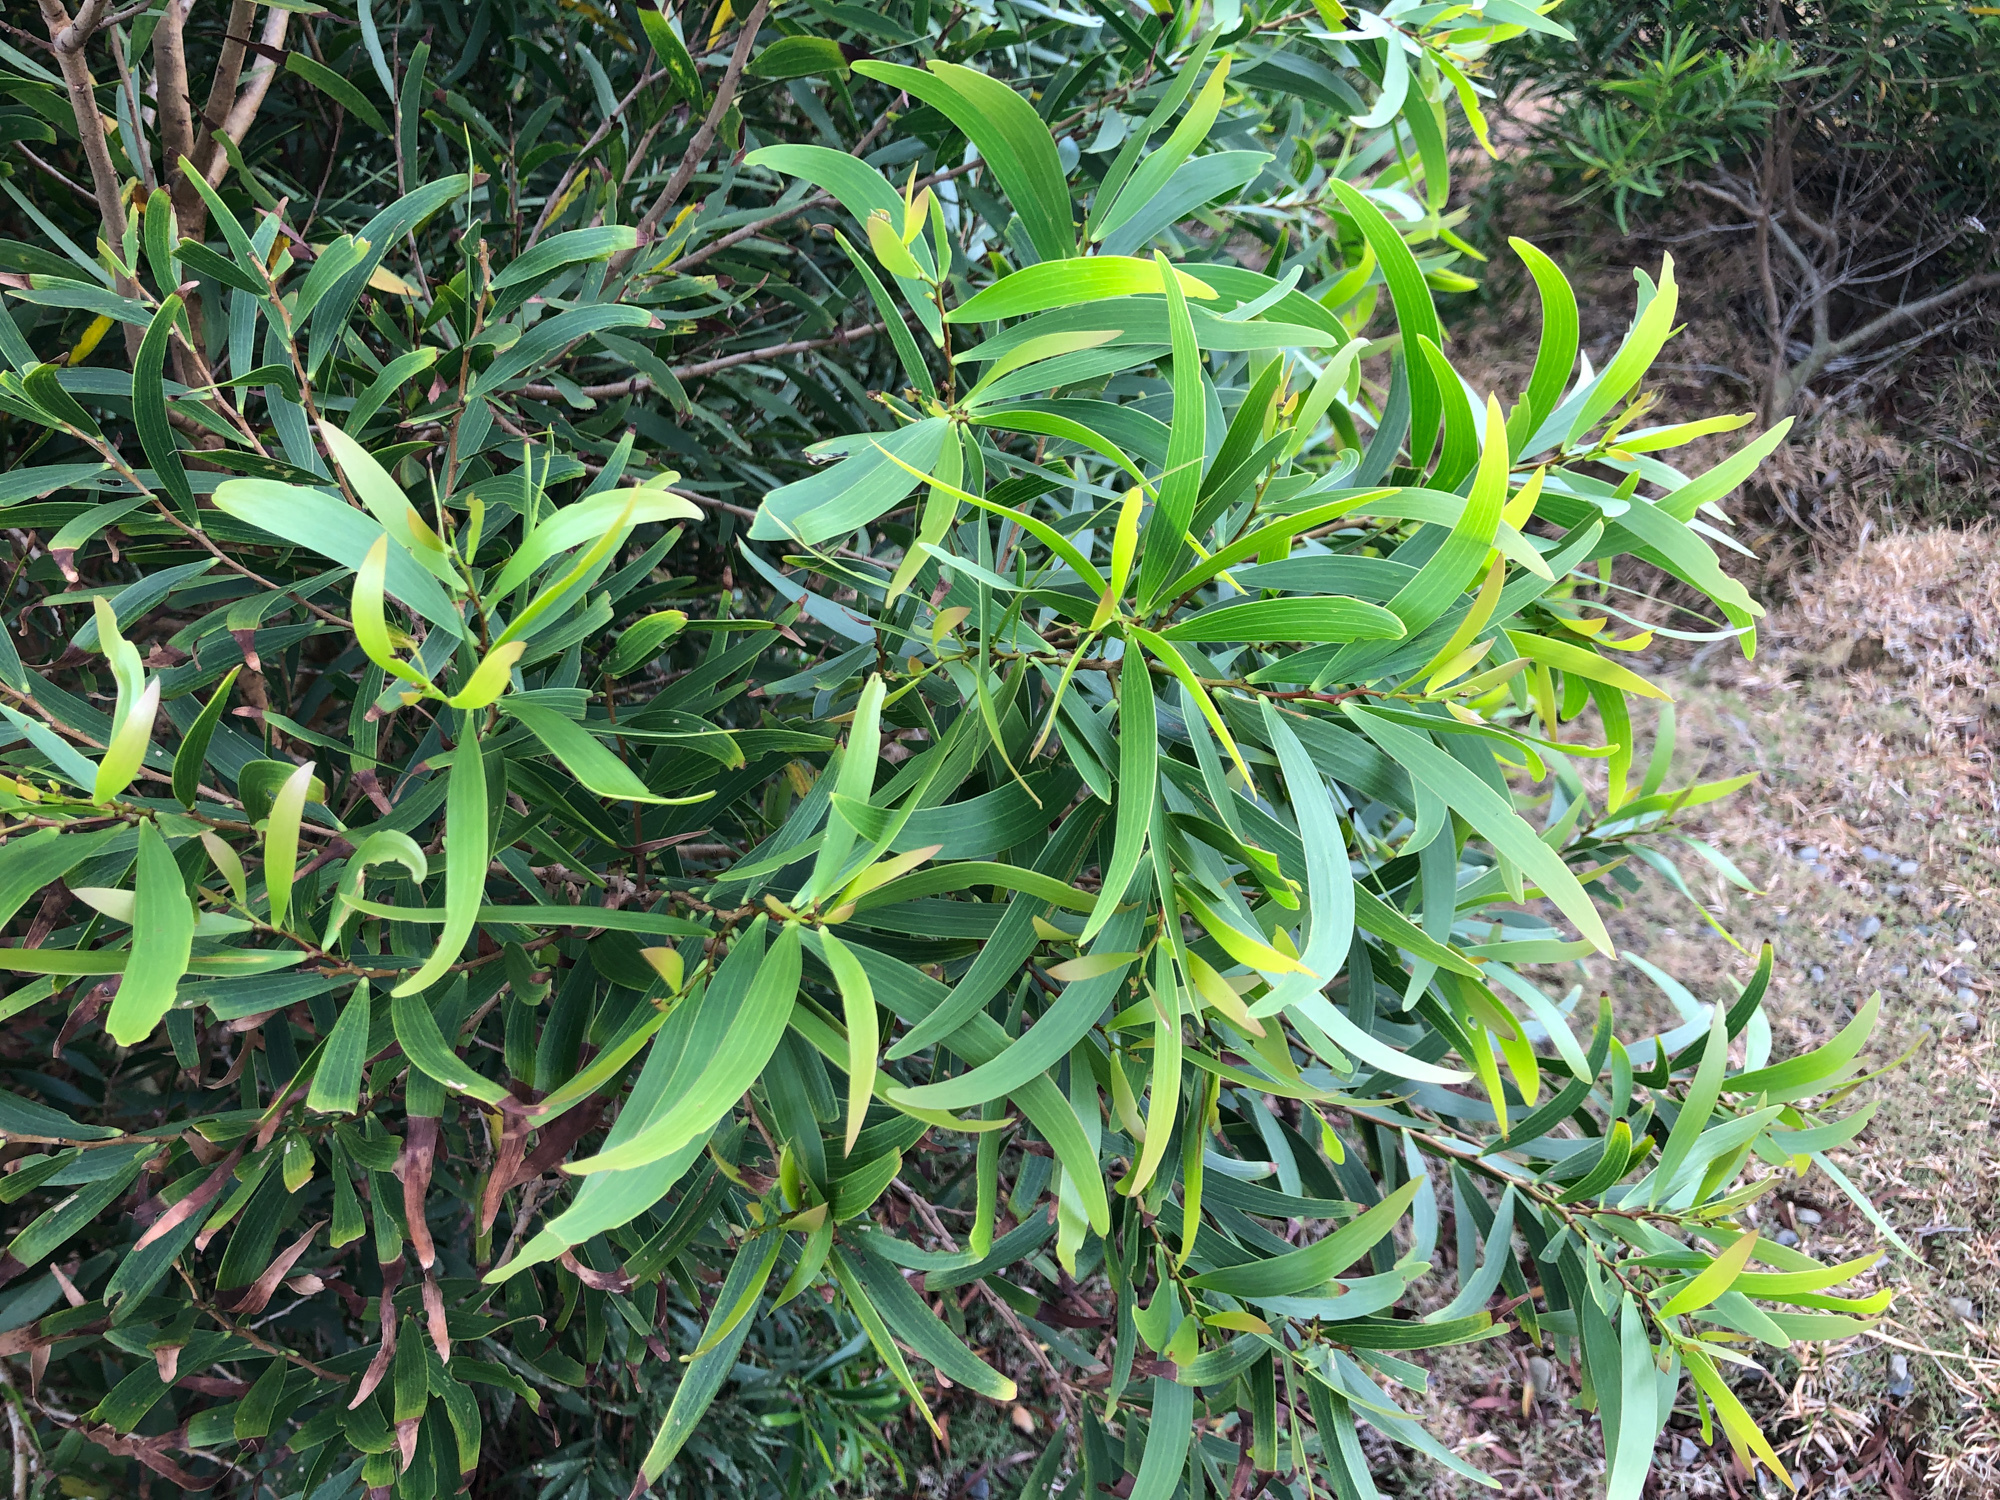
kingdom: Plantae
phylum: Tracheophyta
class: Magnoliopsida
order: Fabales
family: Fabaceae
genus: Acacia
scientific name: Acacia confusa
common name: Formosan koa
